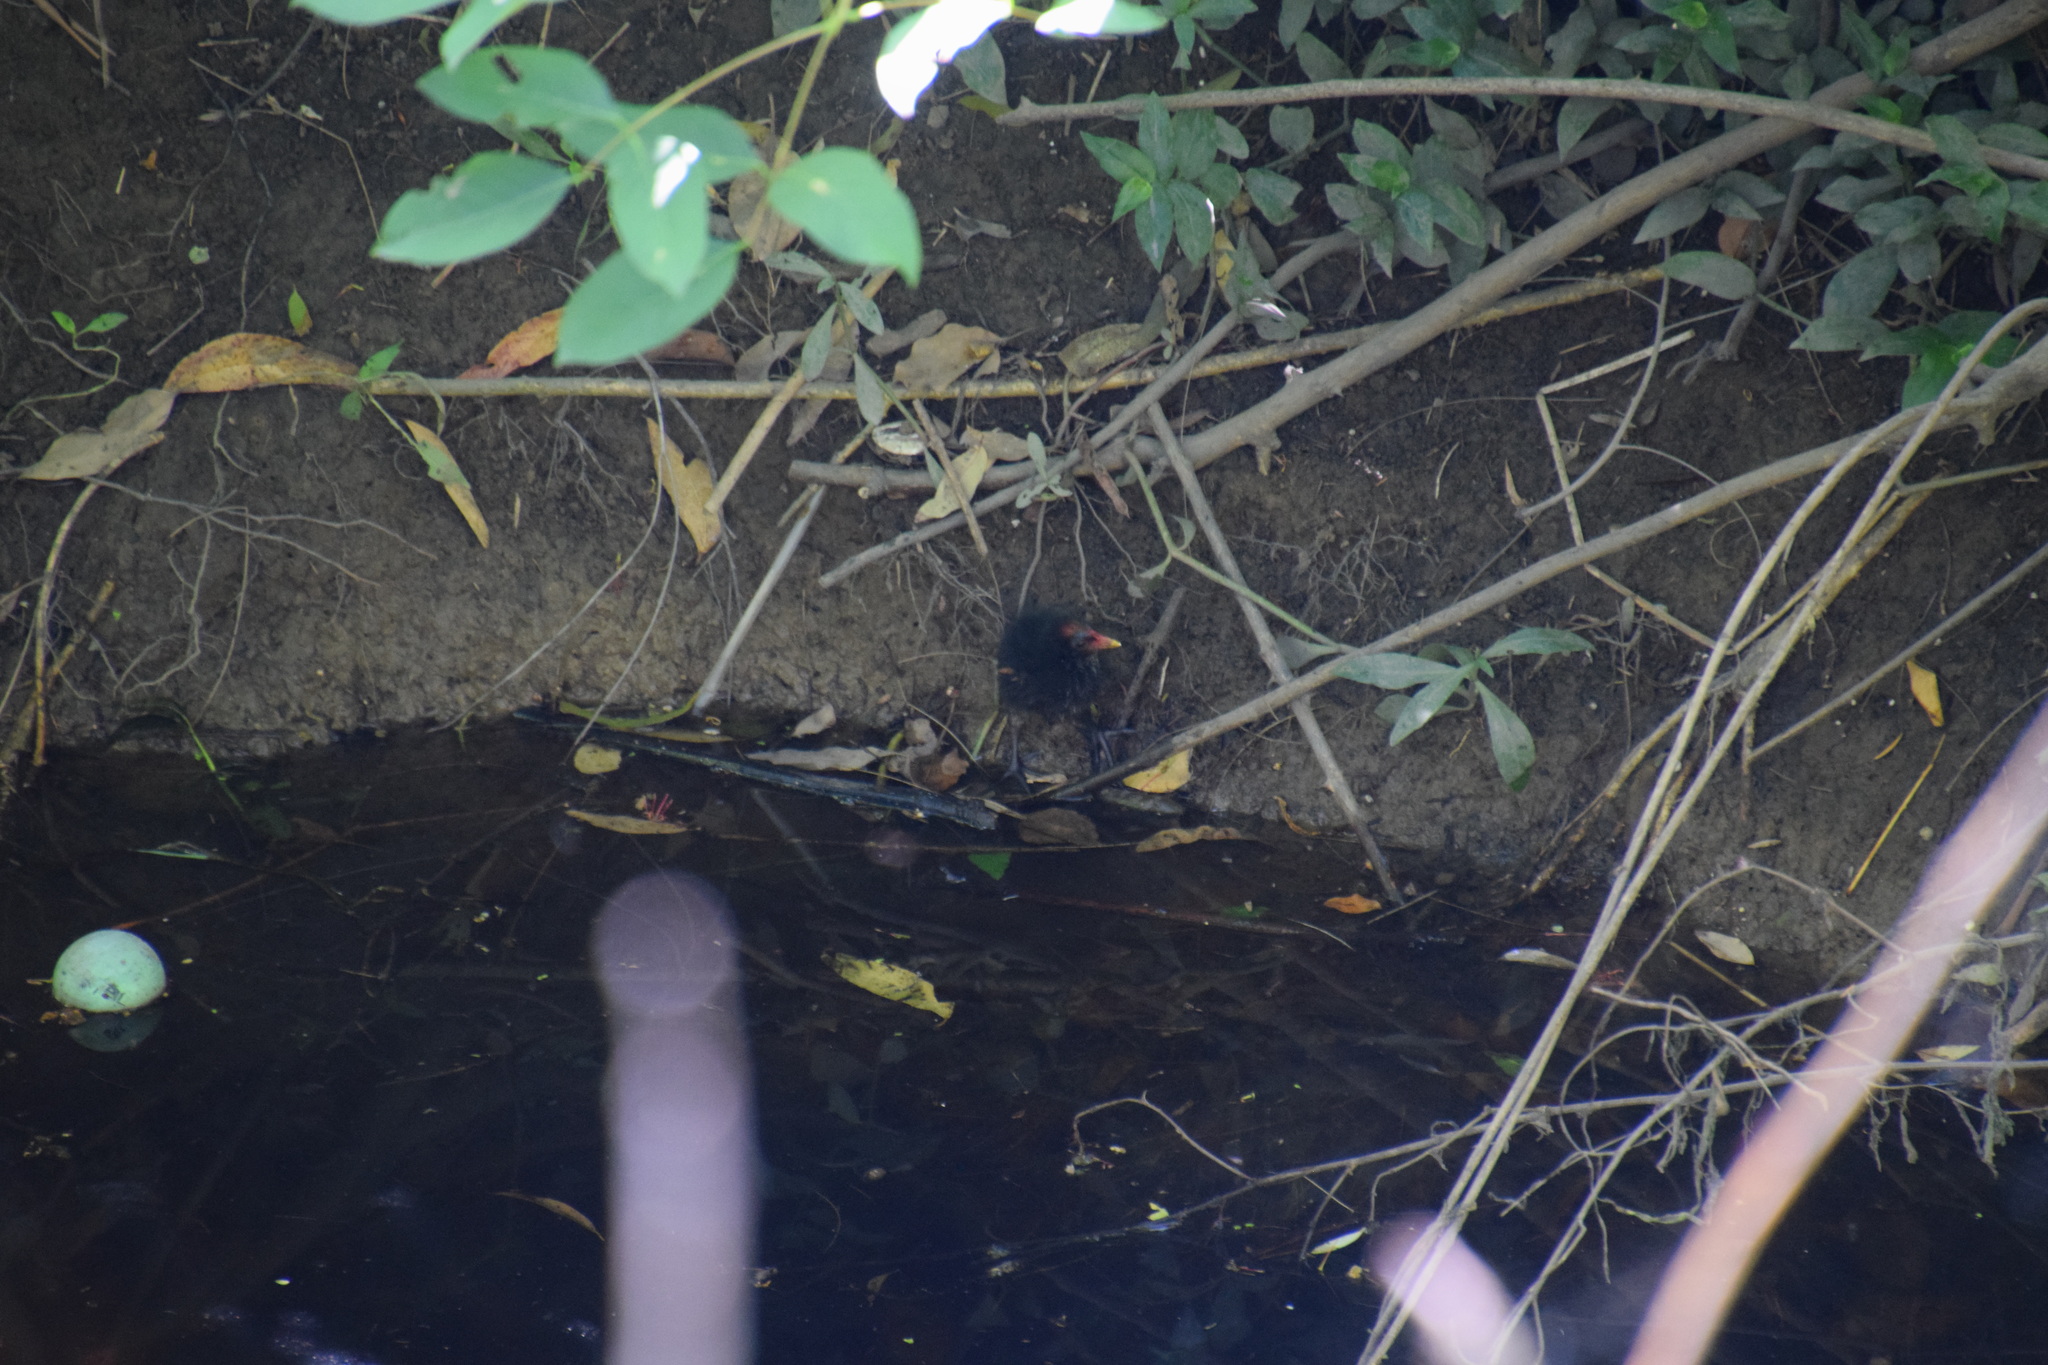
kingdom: Animalia
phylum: Chordata
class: Aves
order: Gruiformes
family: Rallidae
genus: Gallinula
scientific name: Gallinula tenebrosa
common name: Dusky moorhen
